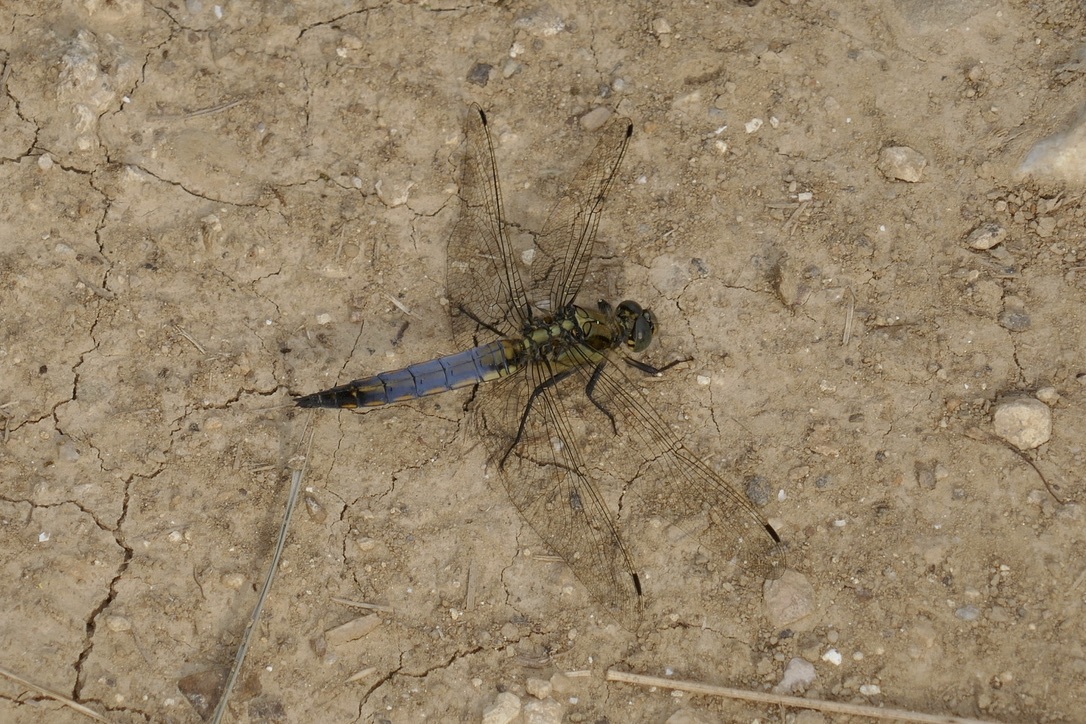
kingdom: Animalia
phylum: Arthropoda
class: Insecta
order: Odonata
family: Libellulidae
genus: Orthetrum
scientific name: Orthetrum cancellatum
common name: Black-tailed skimmer
